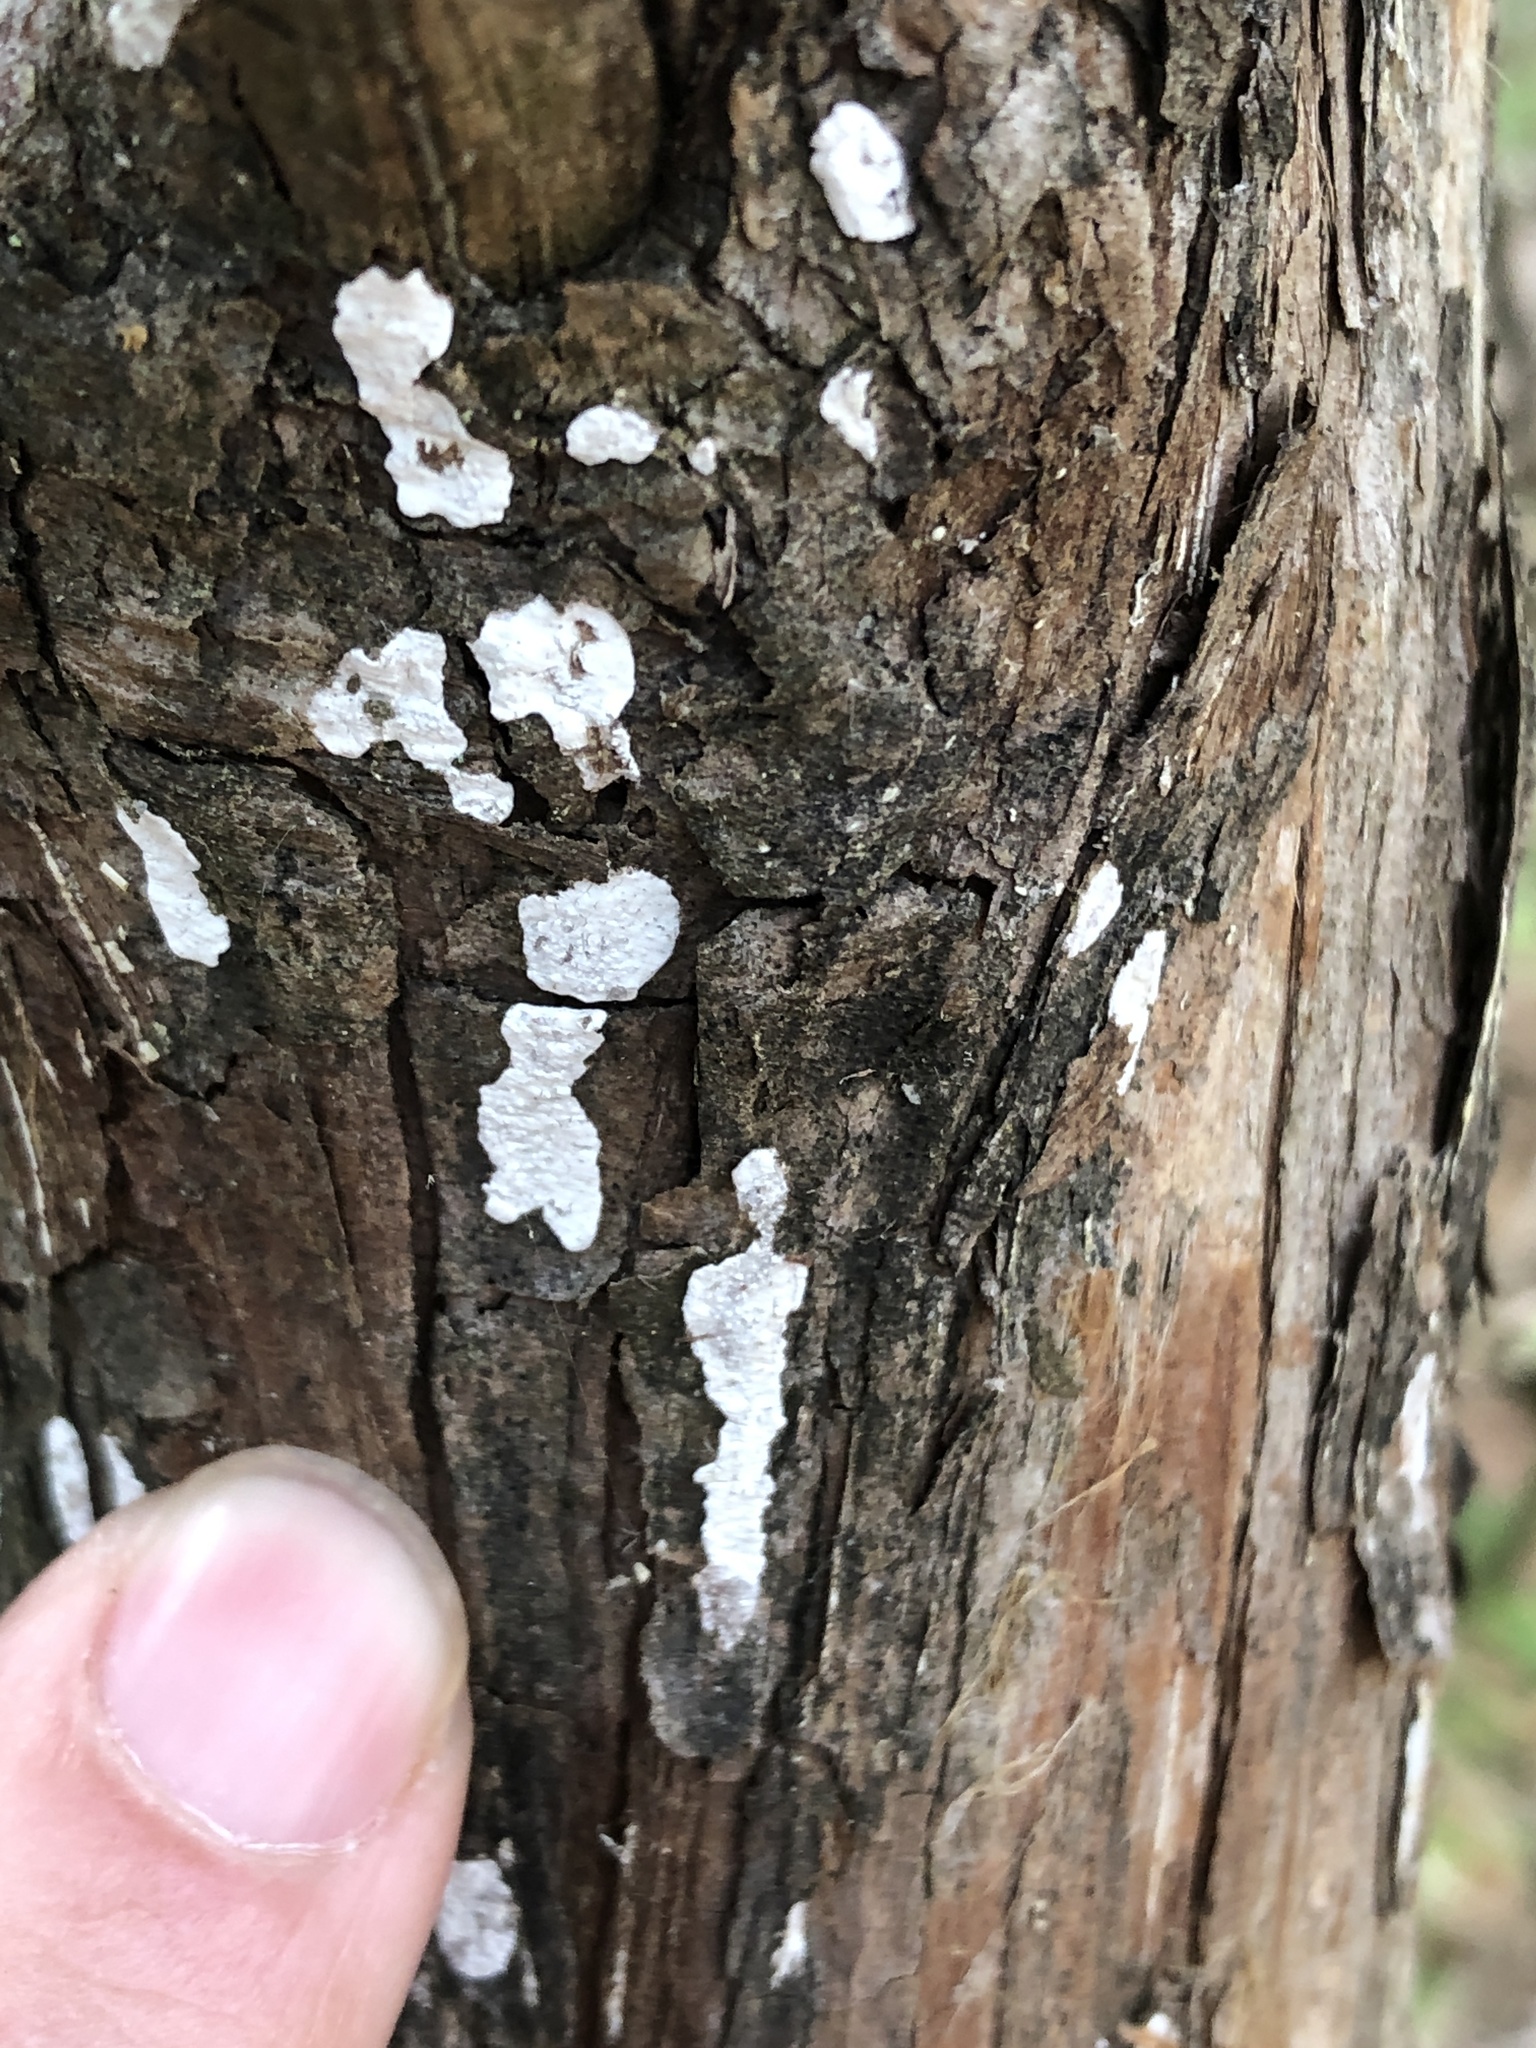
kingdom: Fungi
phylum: Basidiomycota
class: Agaricomycetes
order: Agaricales
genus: Dendrothele
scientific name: Dendrothele nivosa
